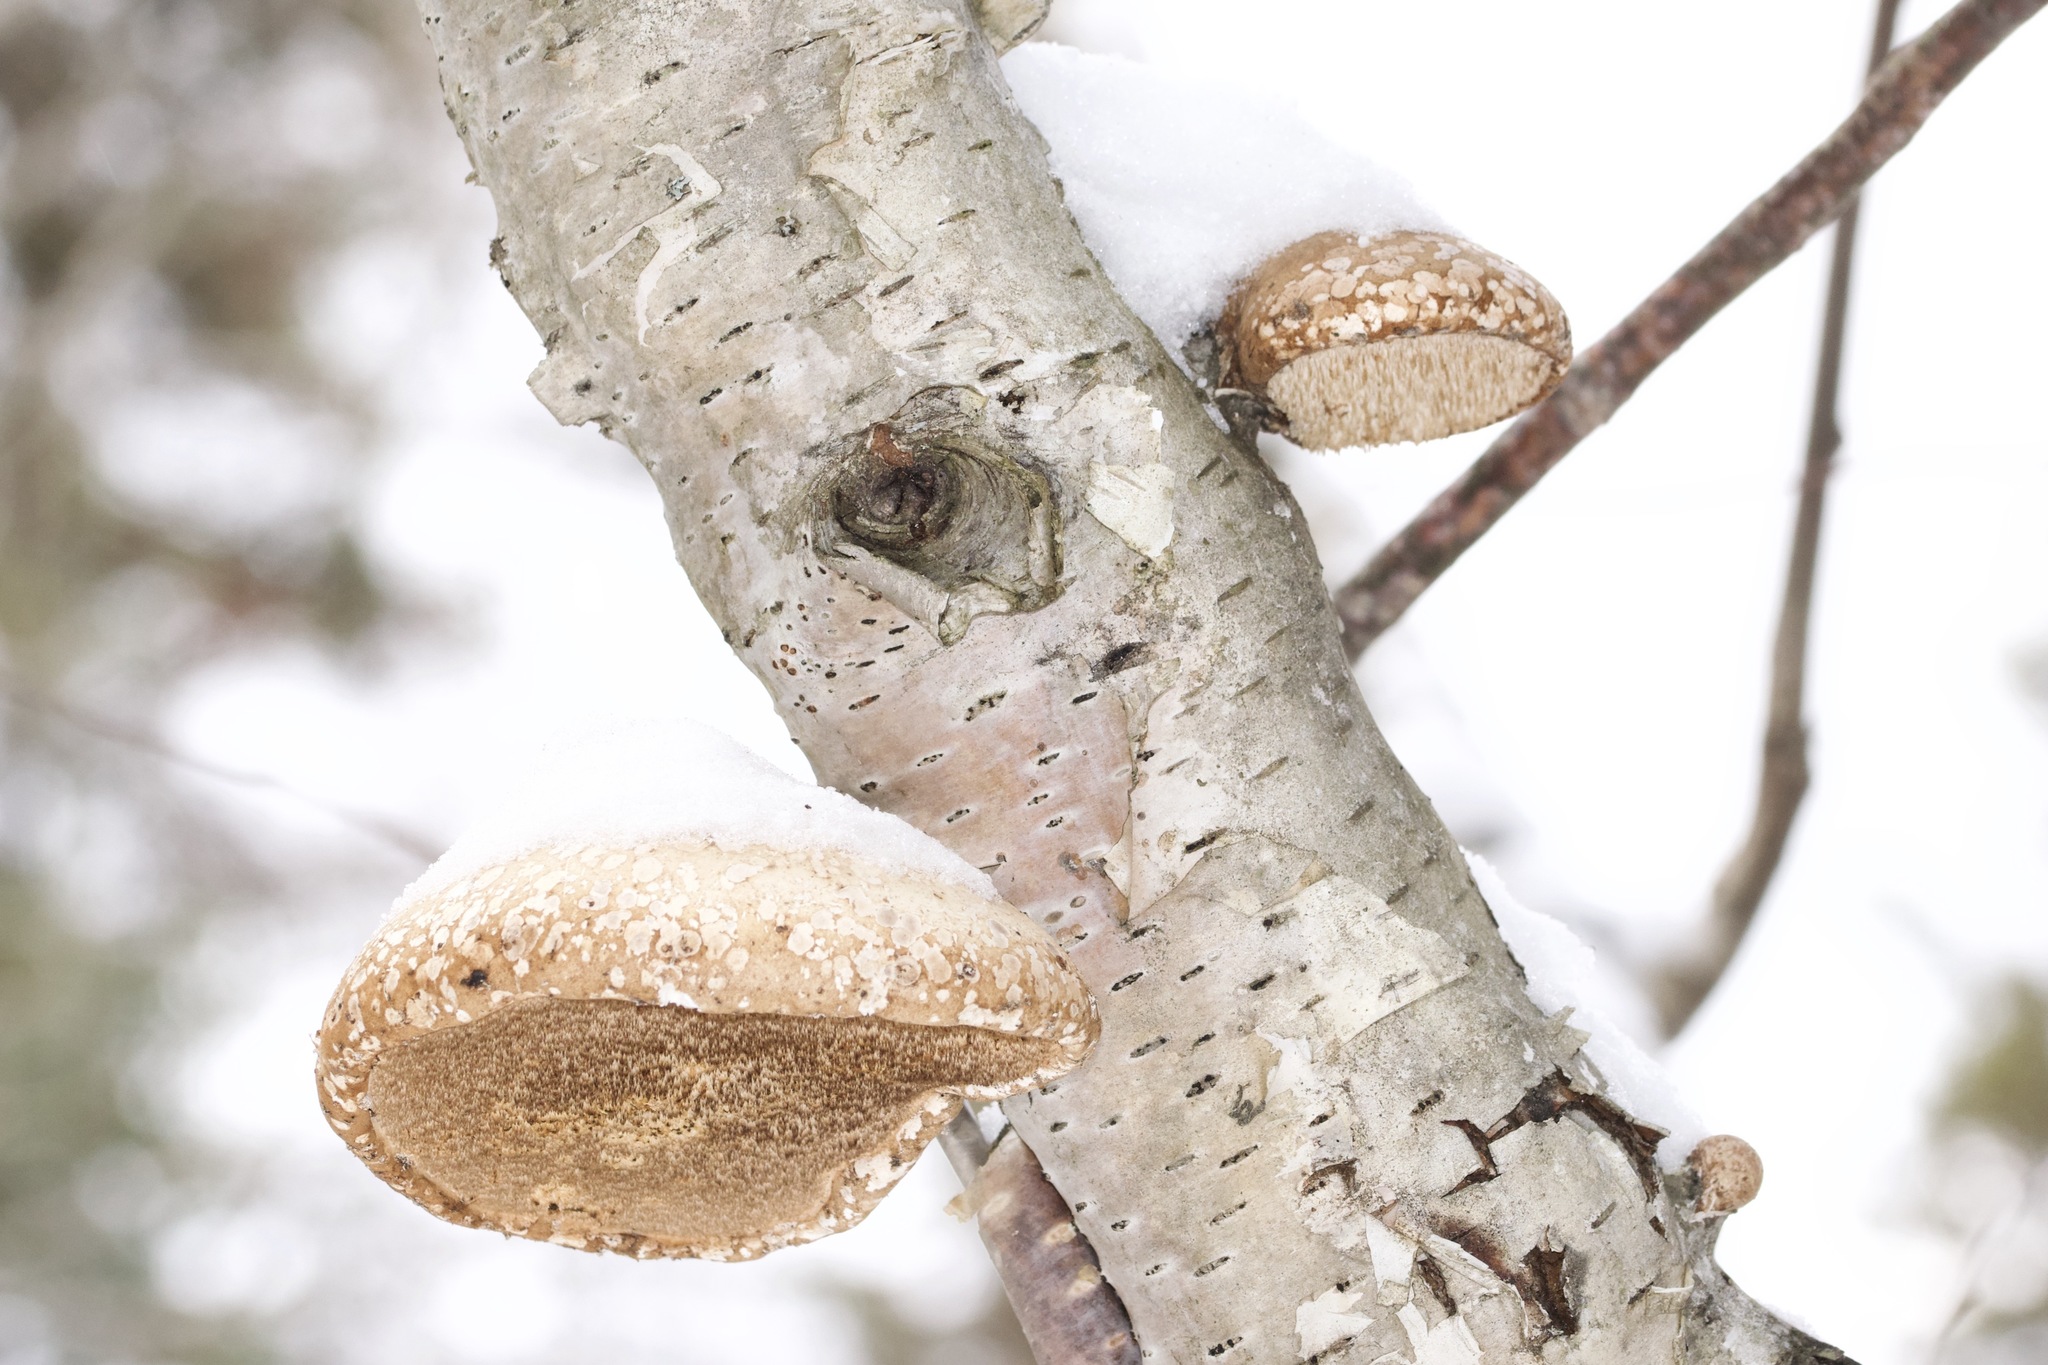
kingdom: Fungi
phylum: Basidiomycota
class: Agaricomycetes
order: Polyporales
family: Fomitopsidaceae
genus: Fomitopsis
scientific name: Fomitopsis betulina
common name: Birch polypore
